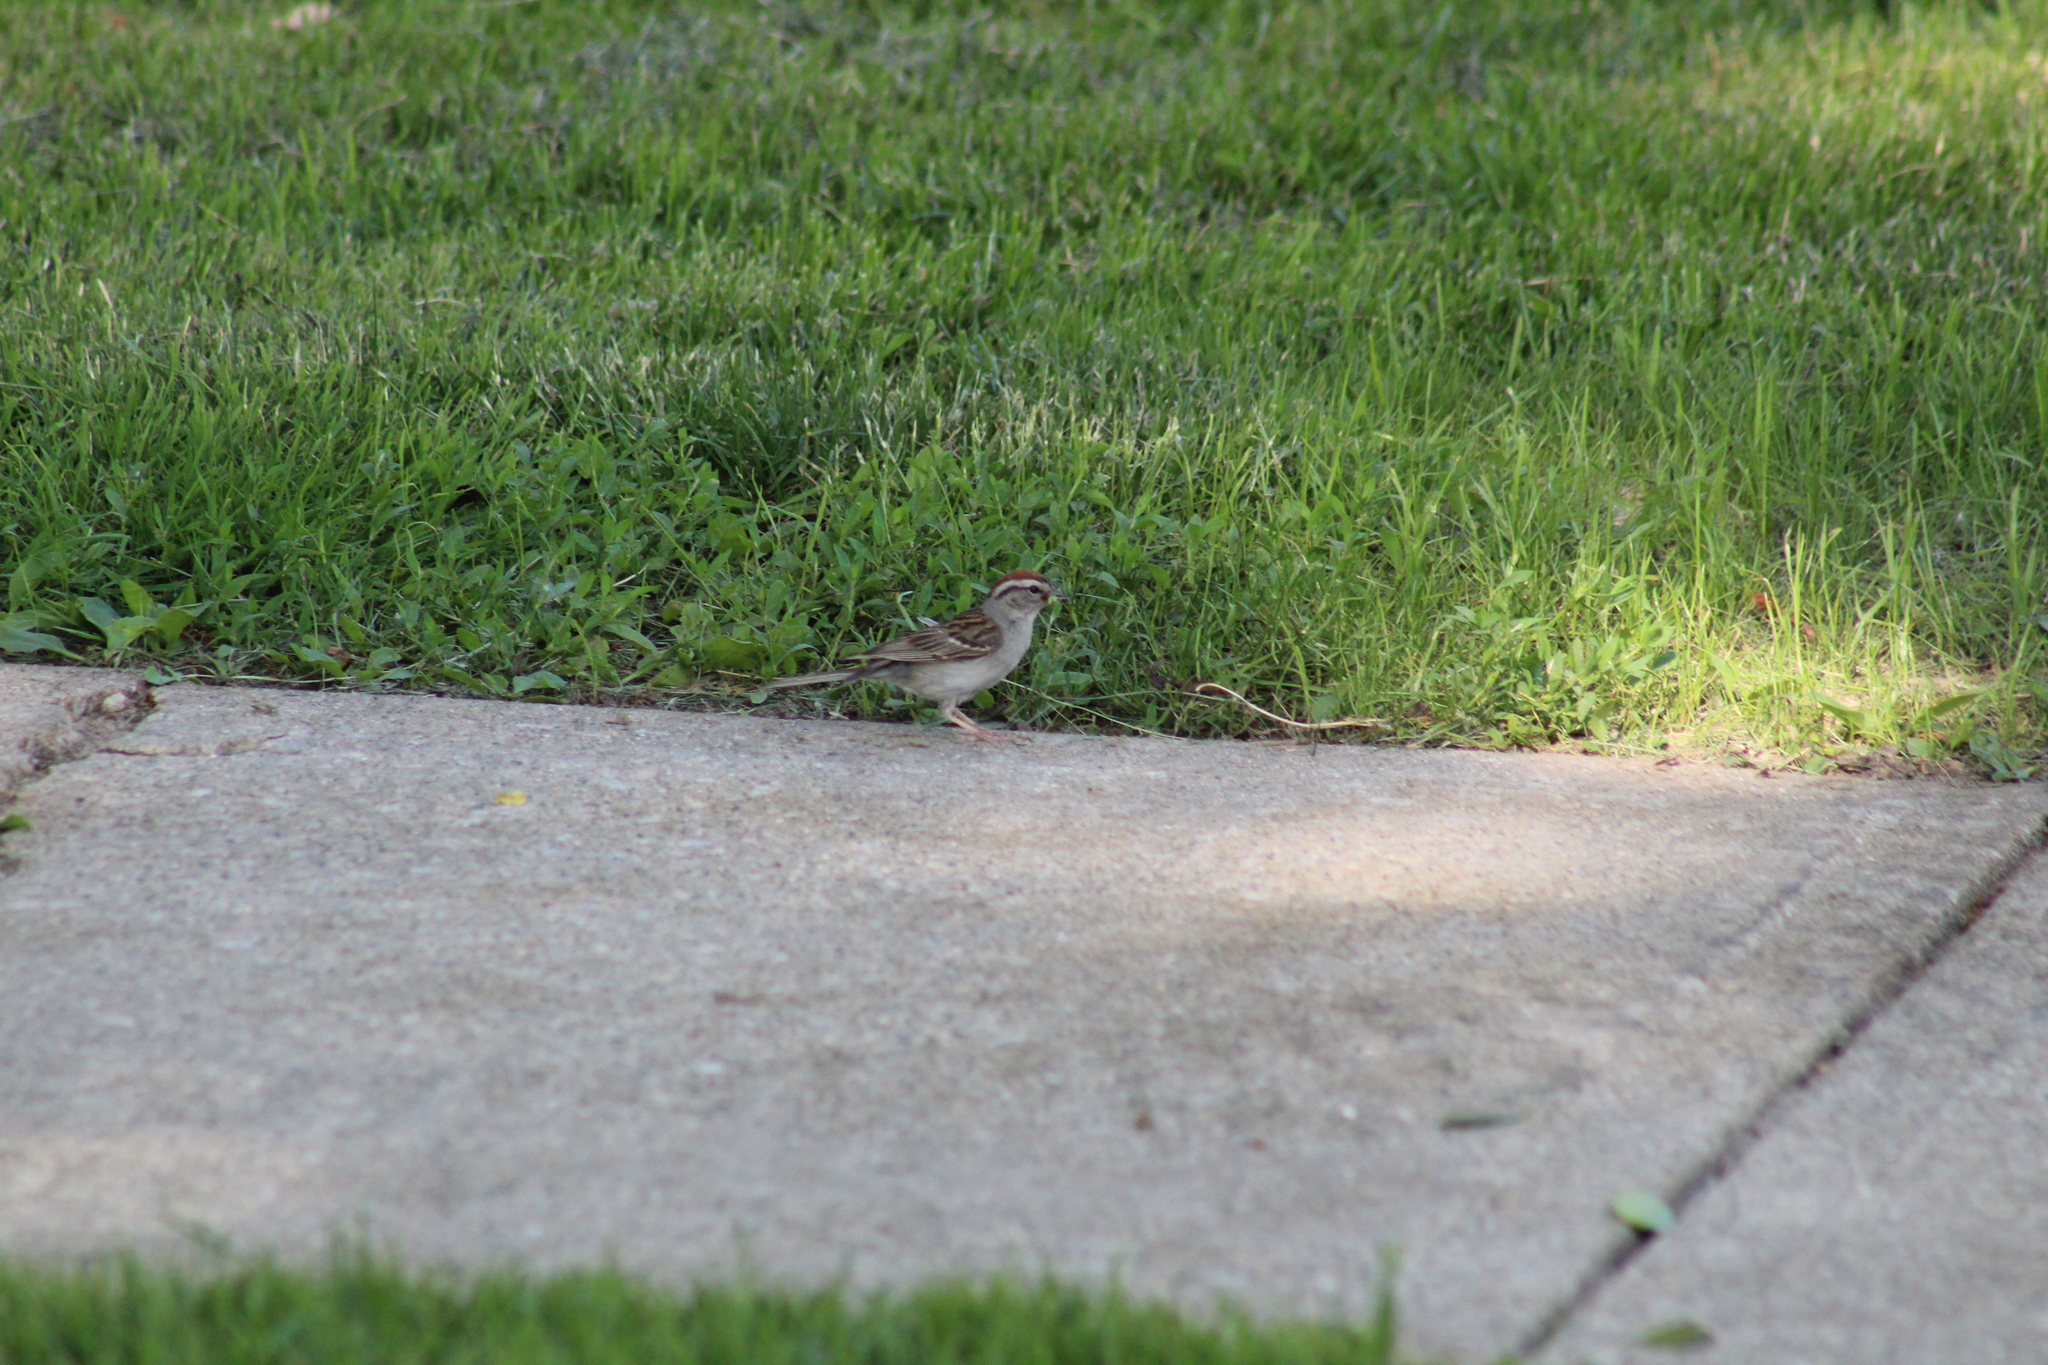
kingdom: Animalia
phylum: Chordata
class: Aves
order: Passeriformes
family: Passerellidae
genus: Spizella
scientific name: Spizella passerina
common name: Chipping sparrow
